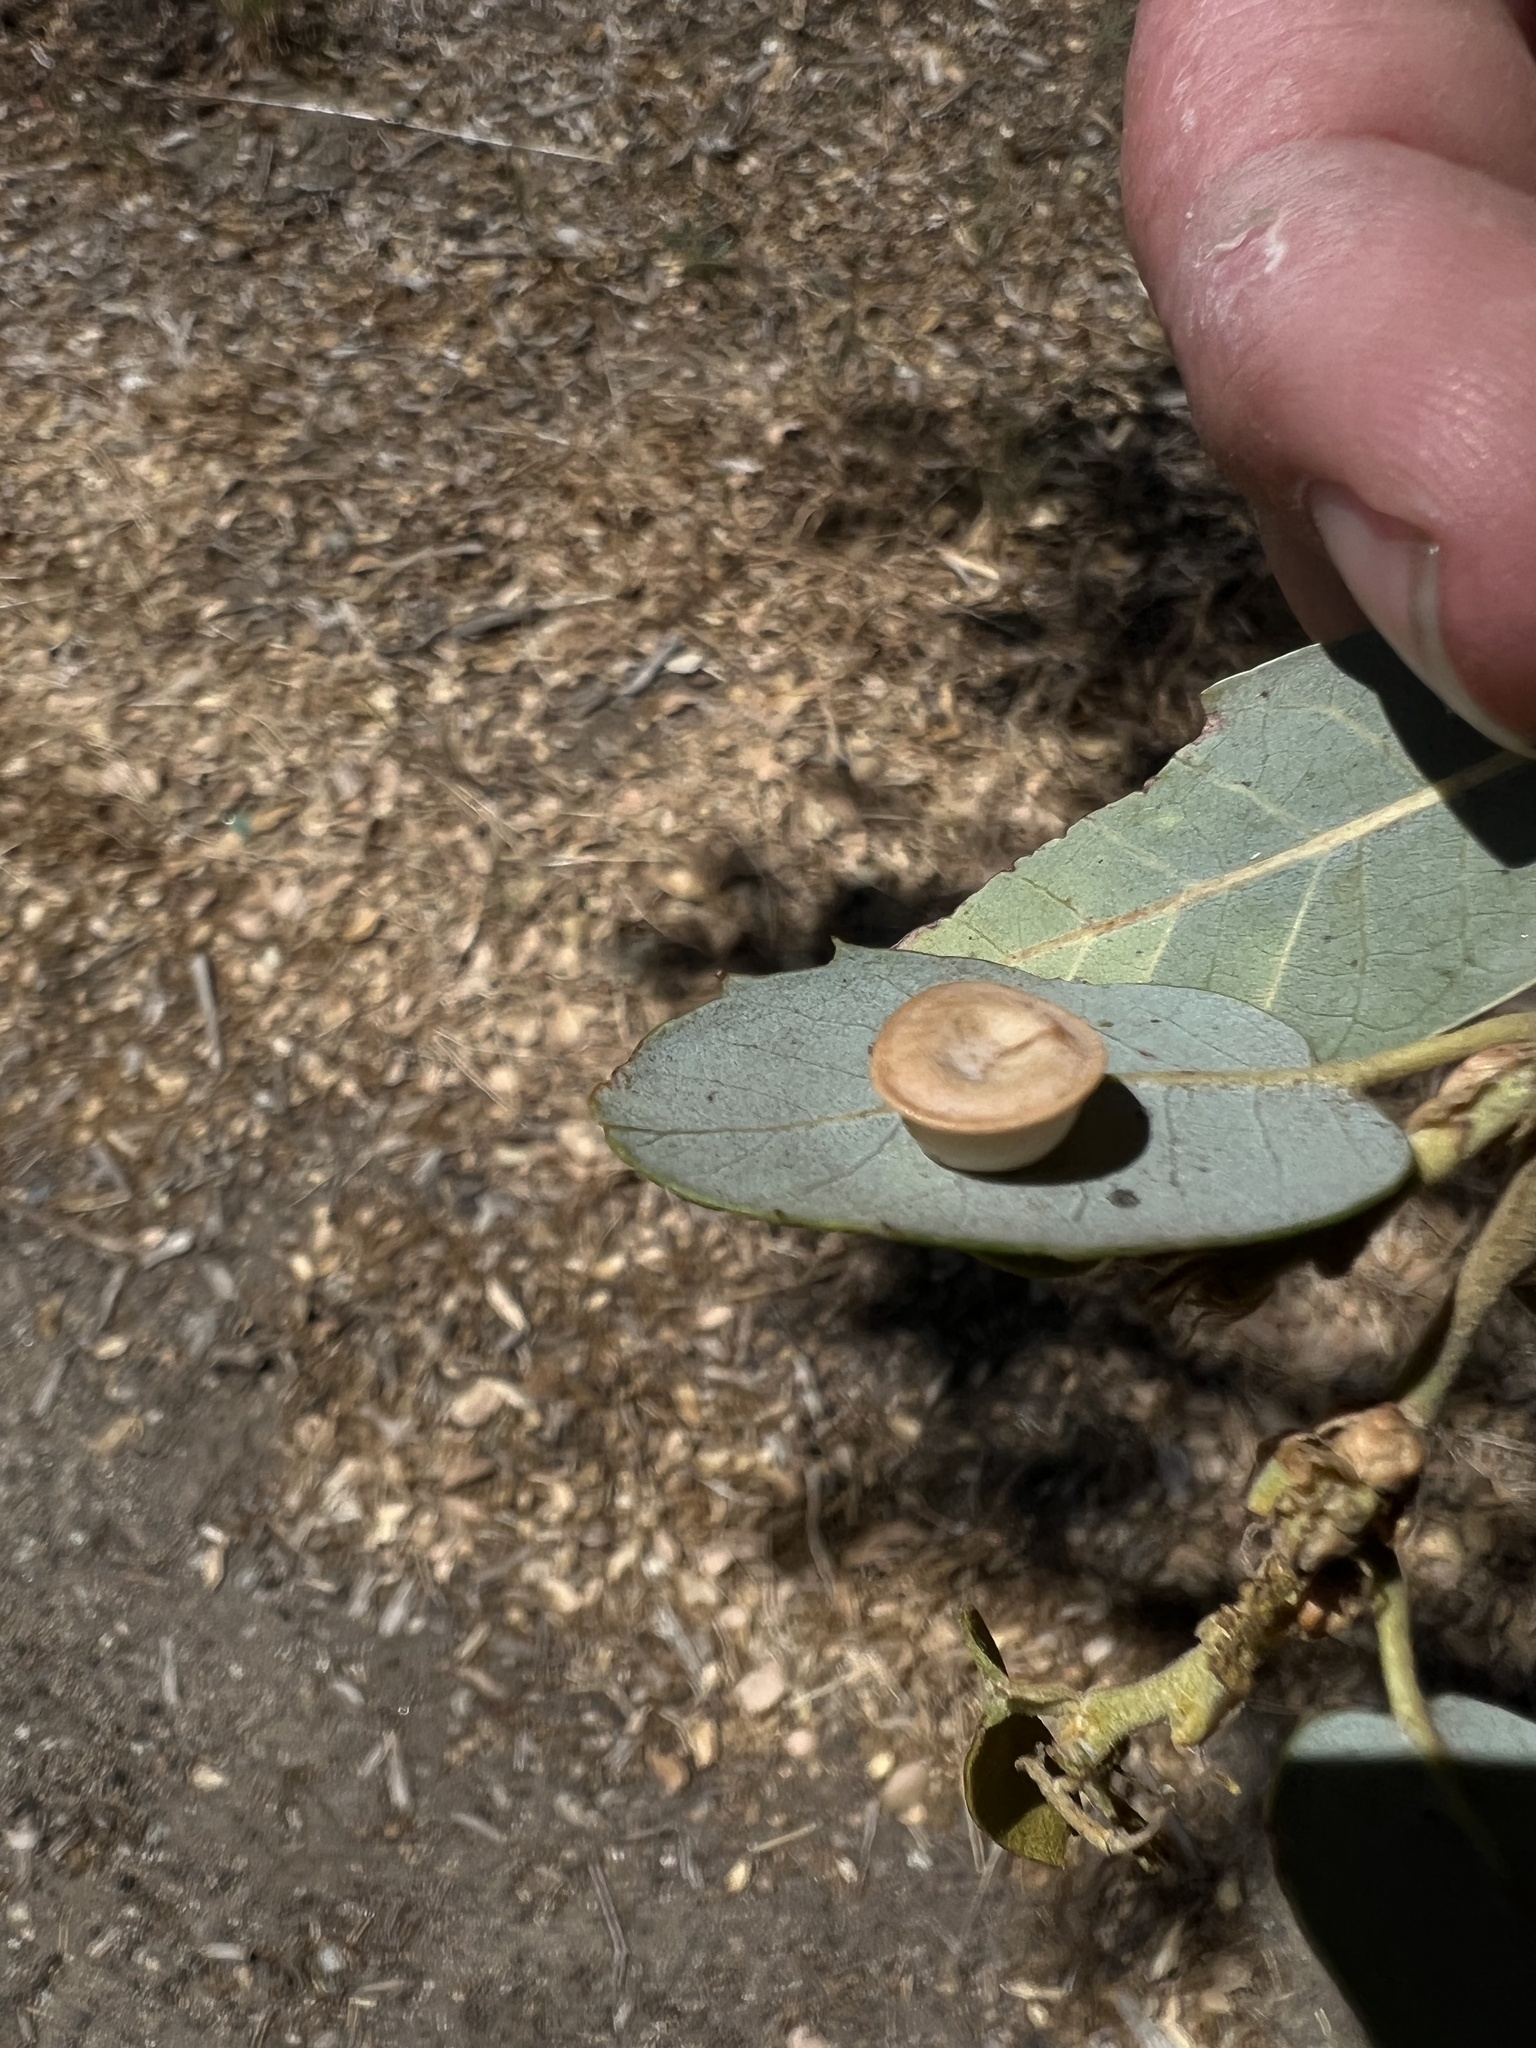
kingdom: Animalia
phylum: Arthropoda
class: Insecta
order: Hymenoptera
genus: Paracraspis
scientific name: Paracraspis
